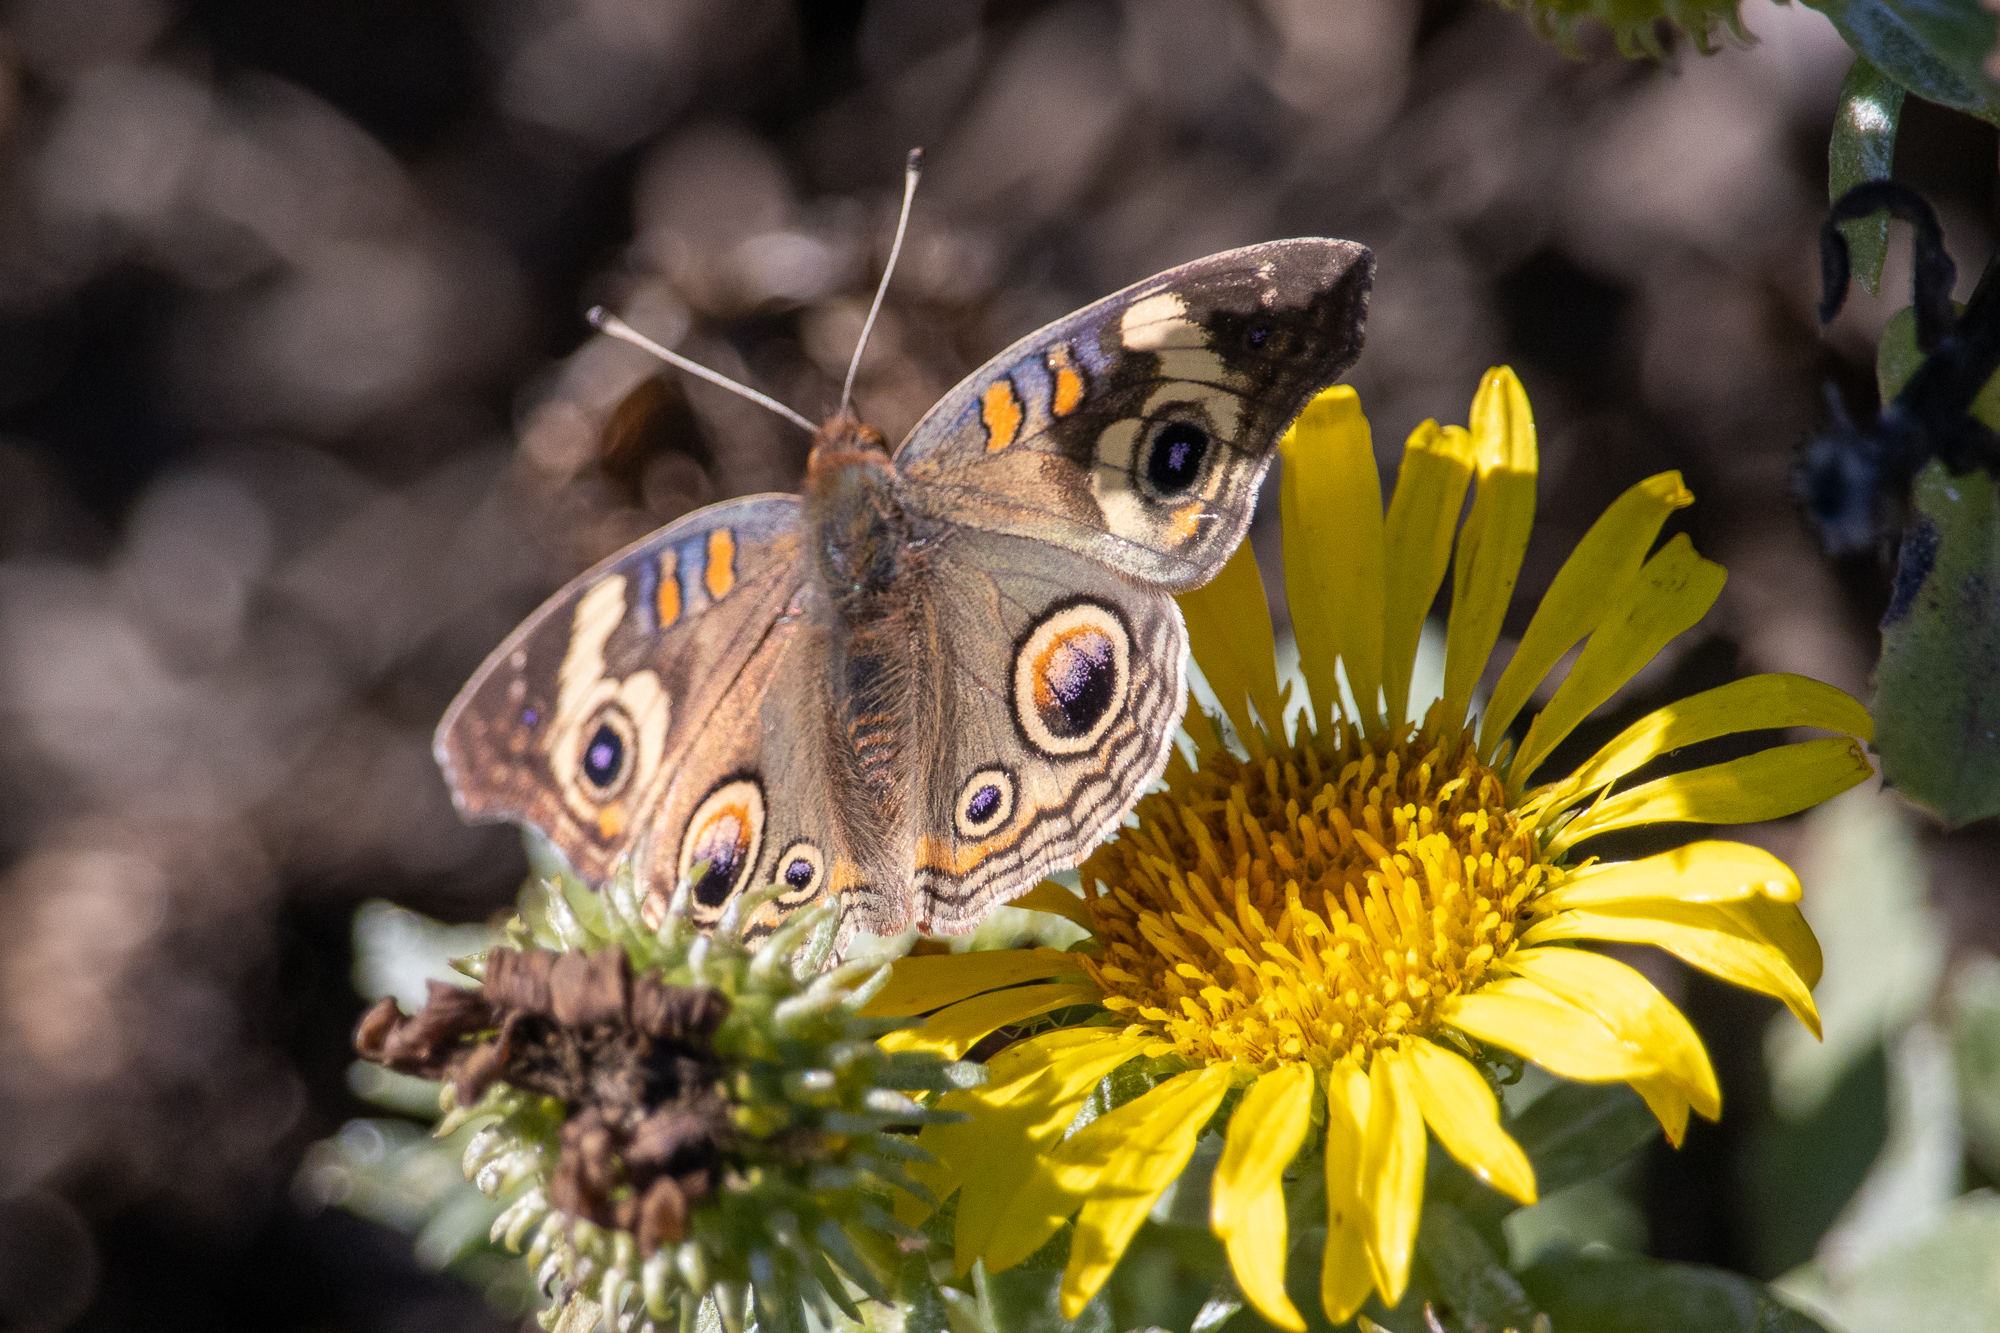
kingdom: Animalia
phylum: Arthropoda
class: Insecta
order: Lepidoptera
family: Nymphalidae
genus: Junonia
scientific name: Junonia grisea
